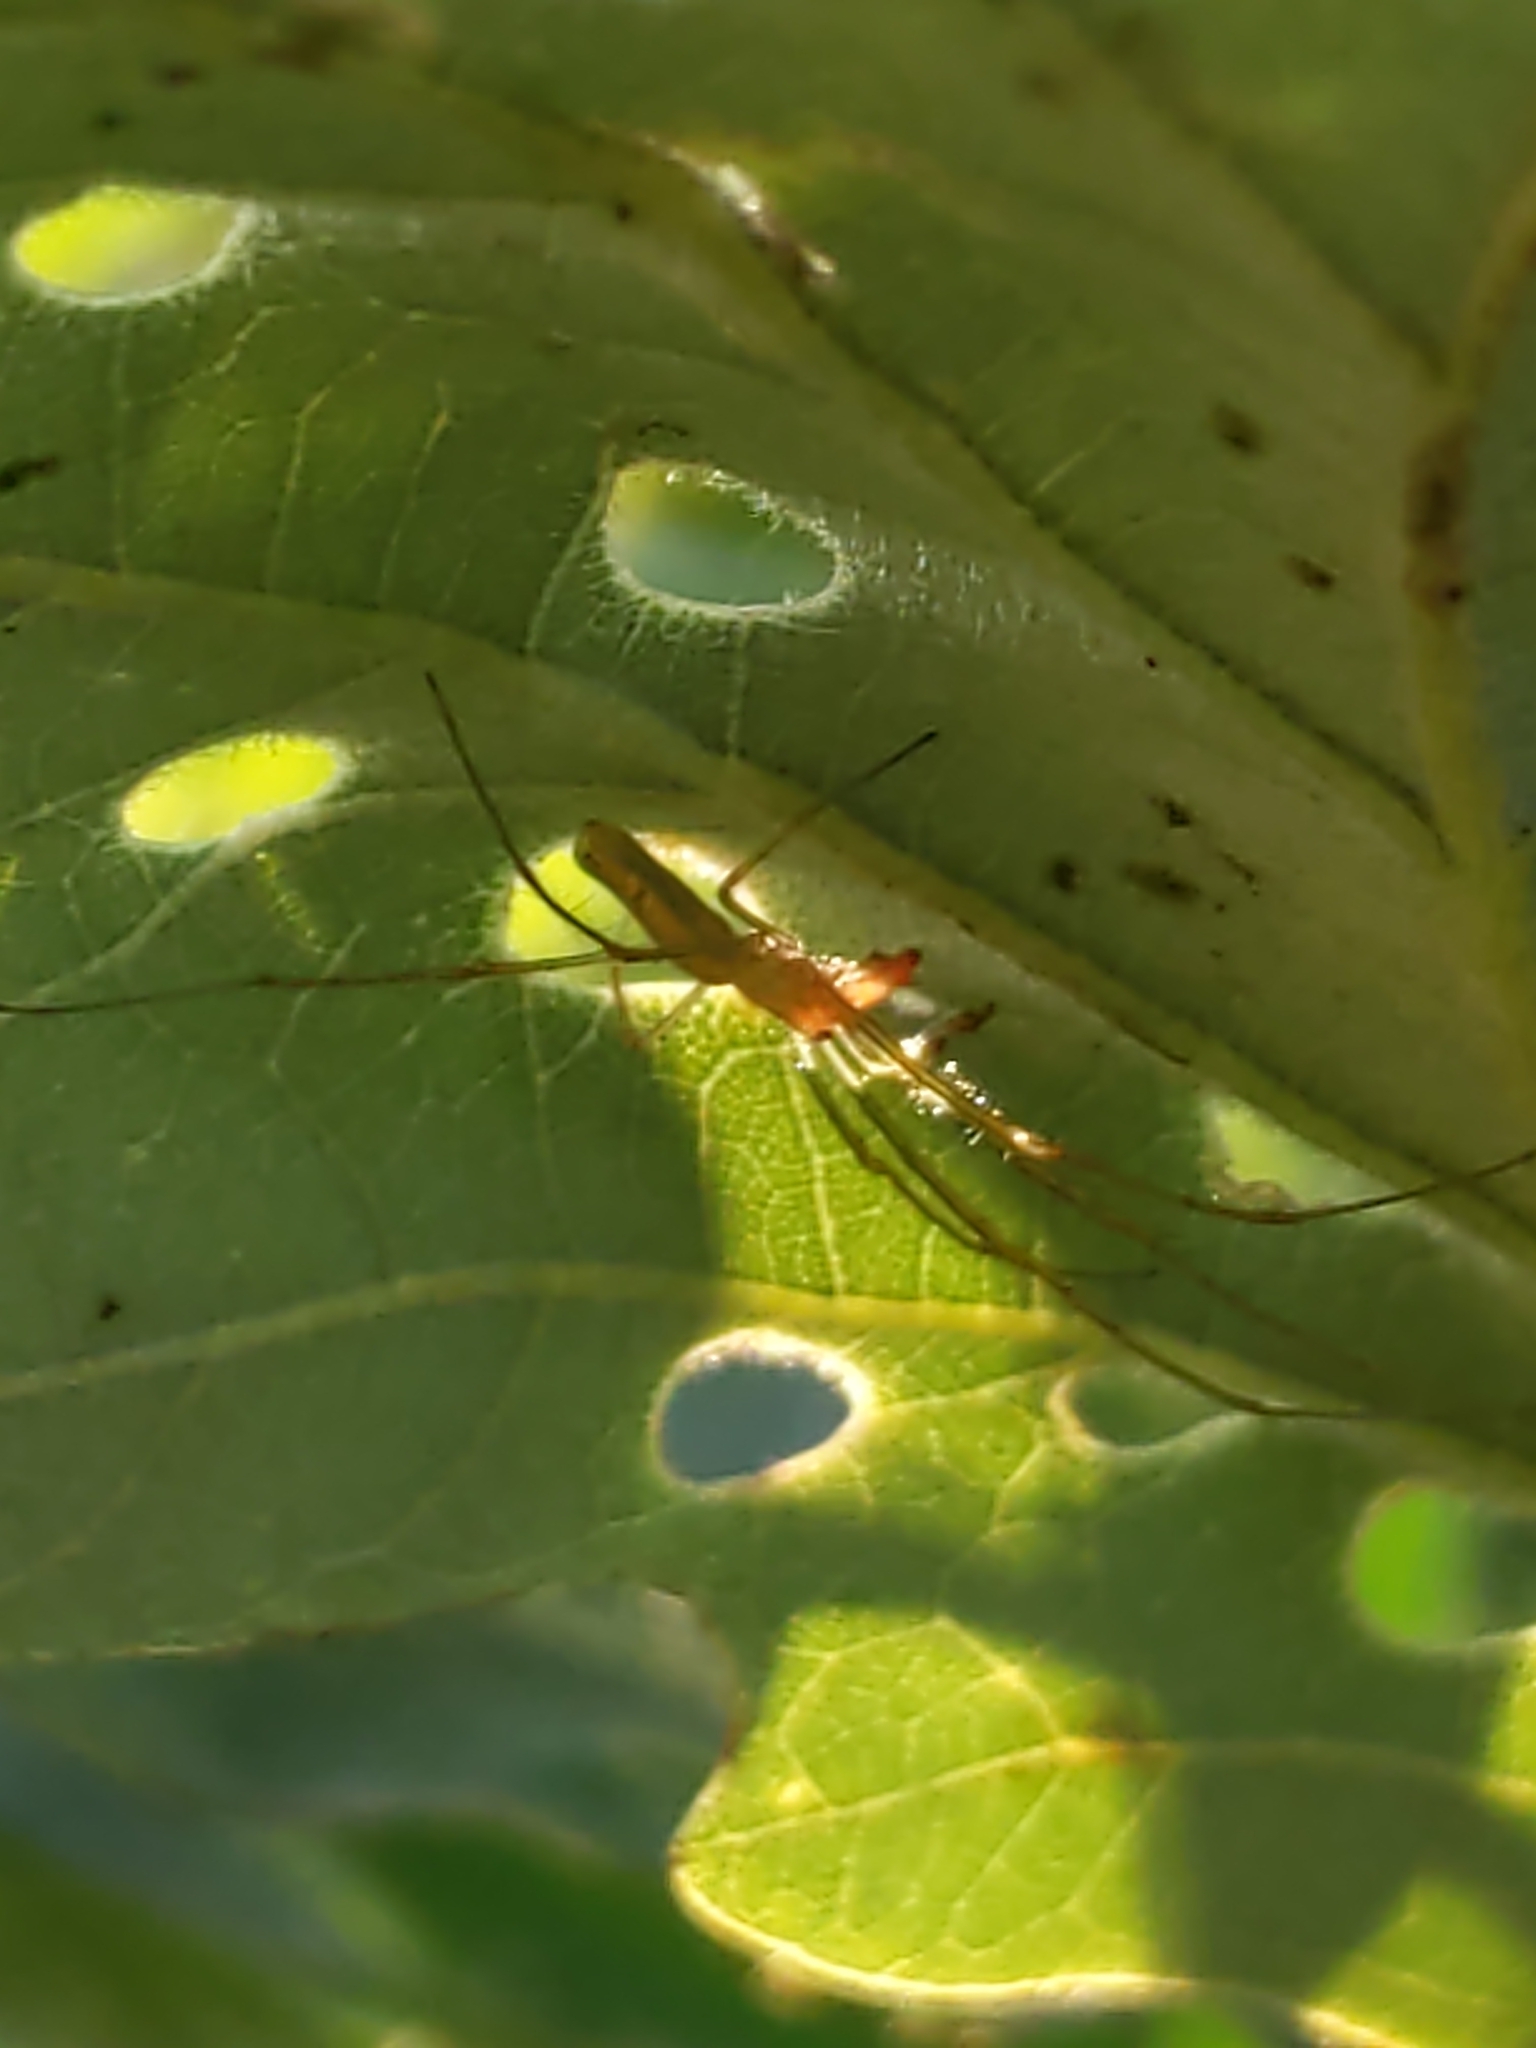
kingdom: Animalia
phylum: Arthropoda
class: Arachnida
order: Araneae
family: Tetragnathidae
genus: Tetragnatha
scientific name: Tetragnatha
